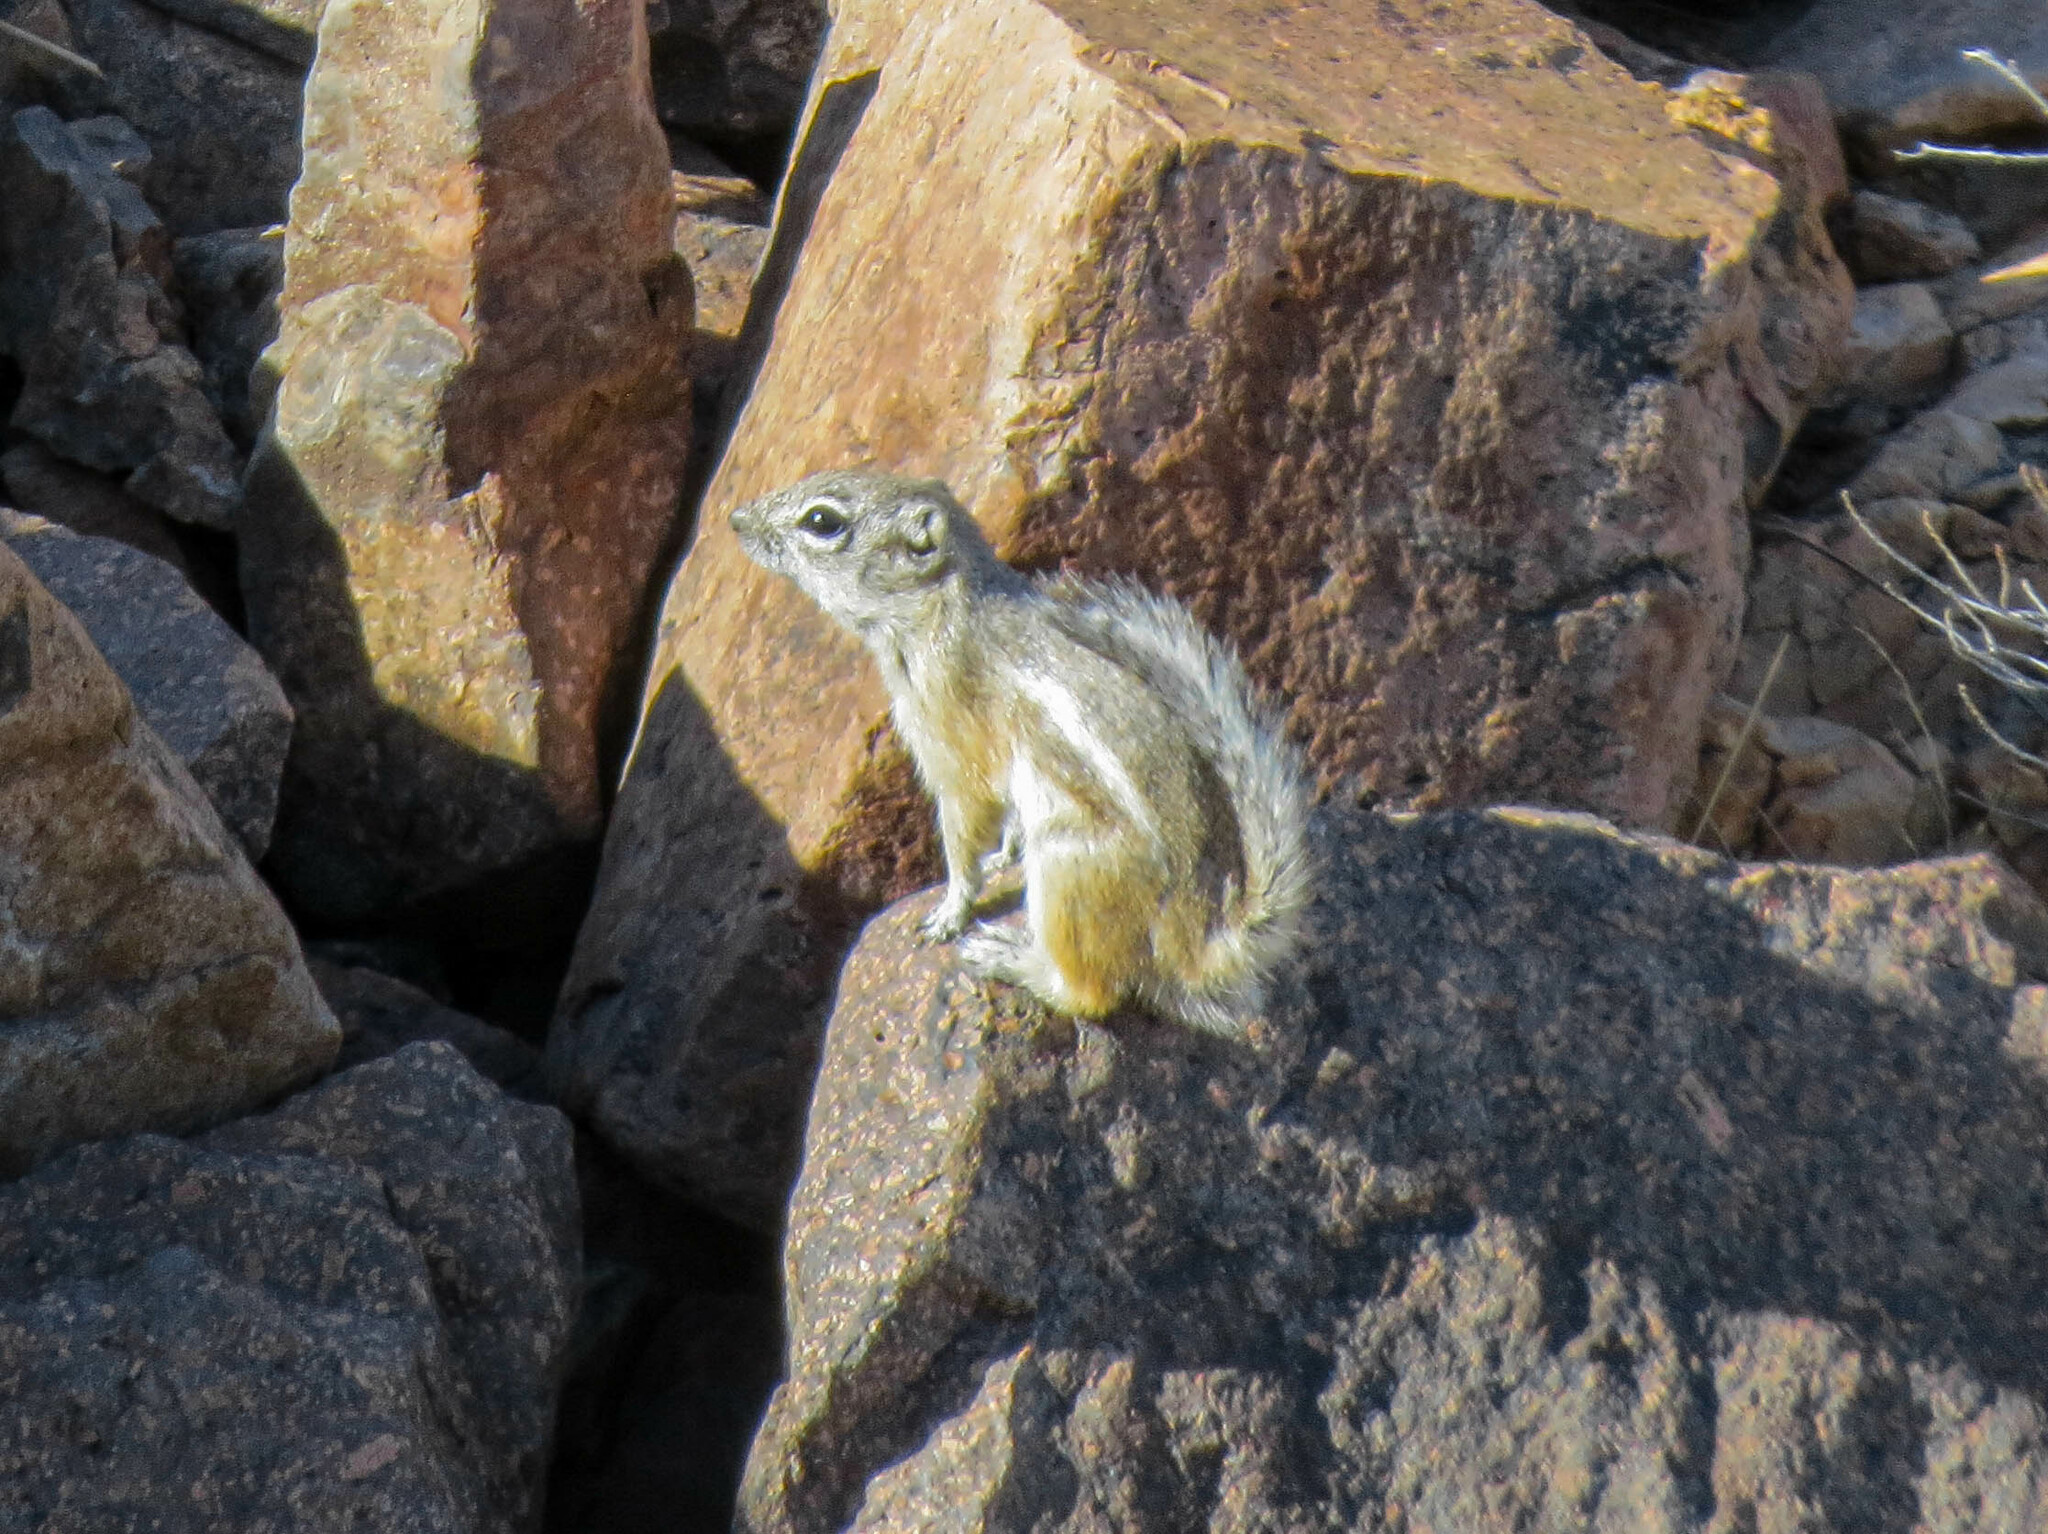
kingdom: Animalia
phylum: Chordata
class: Mammalia
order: Rodentia
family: Sciuridae
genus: Ammospermophilus
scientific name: Ammospermophilus interpres
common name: Texas antelope squirrel
